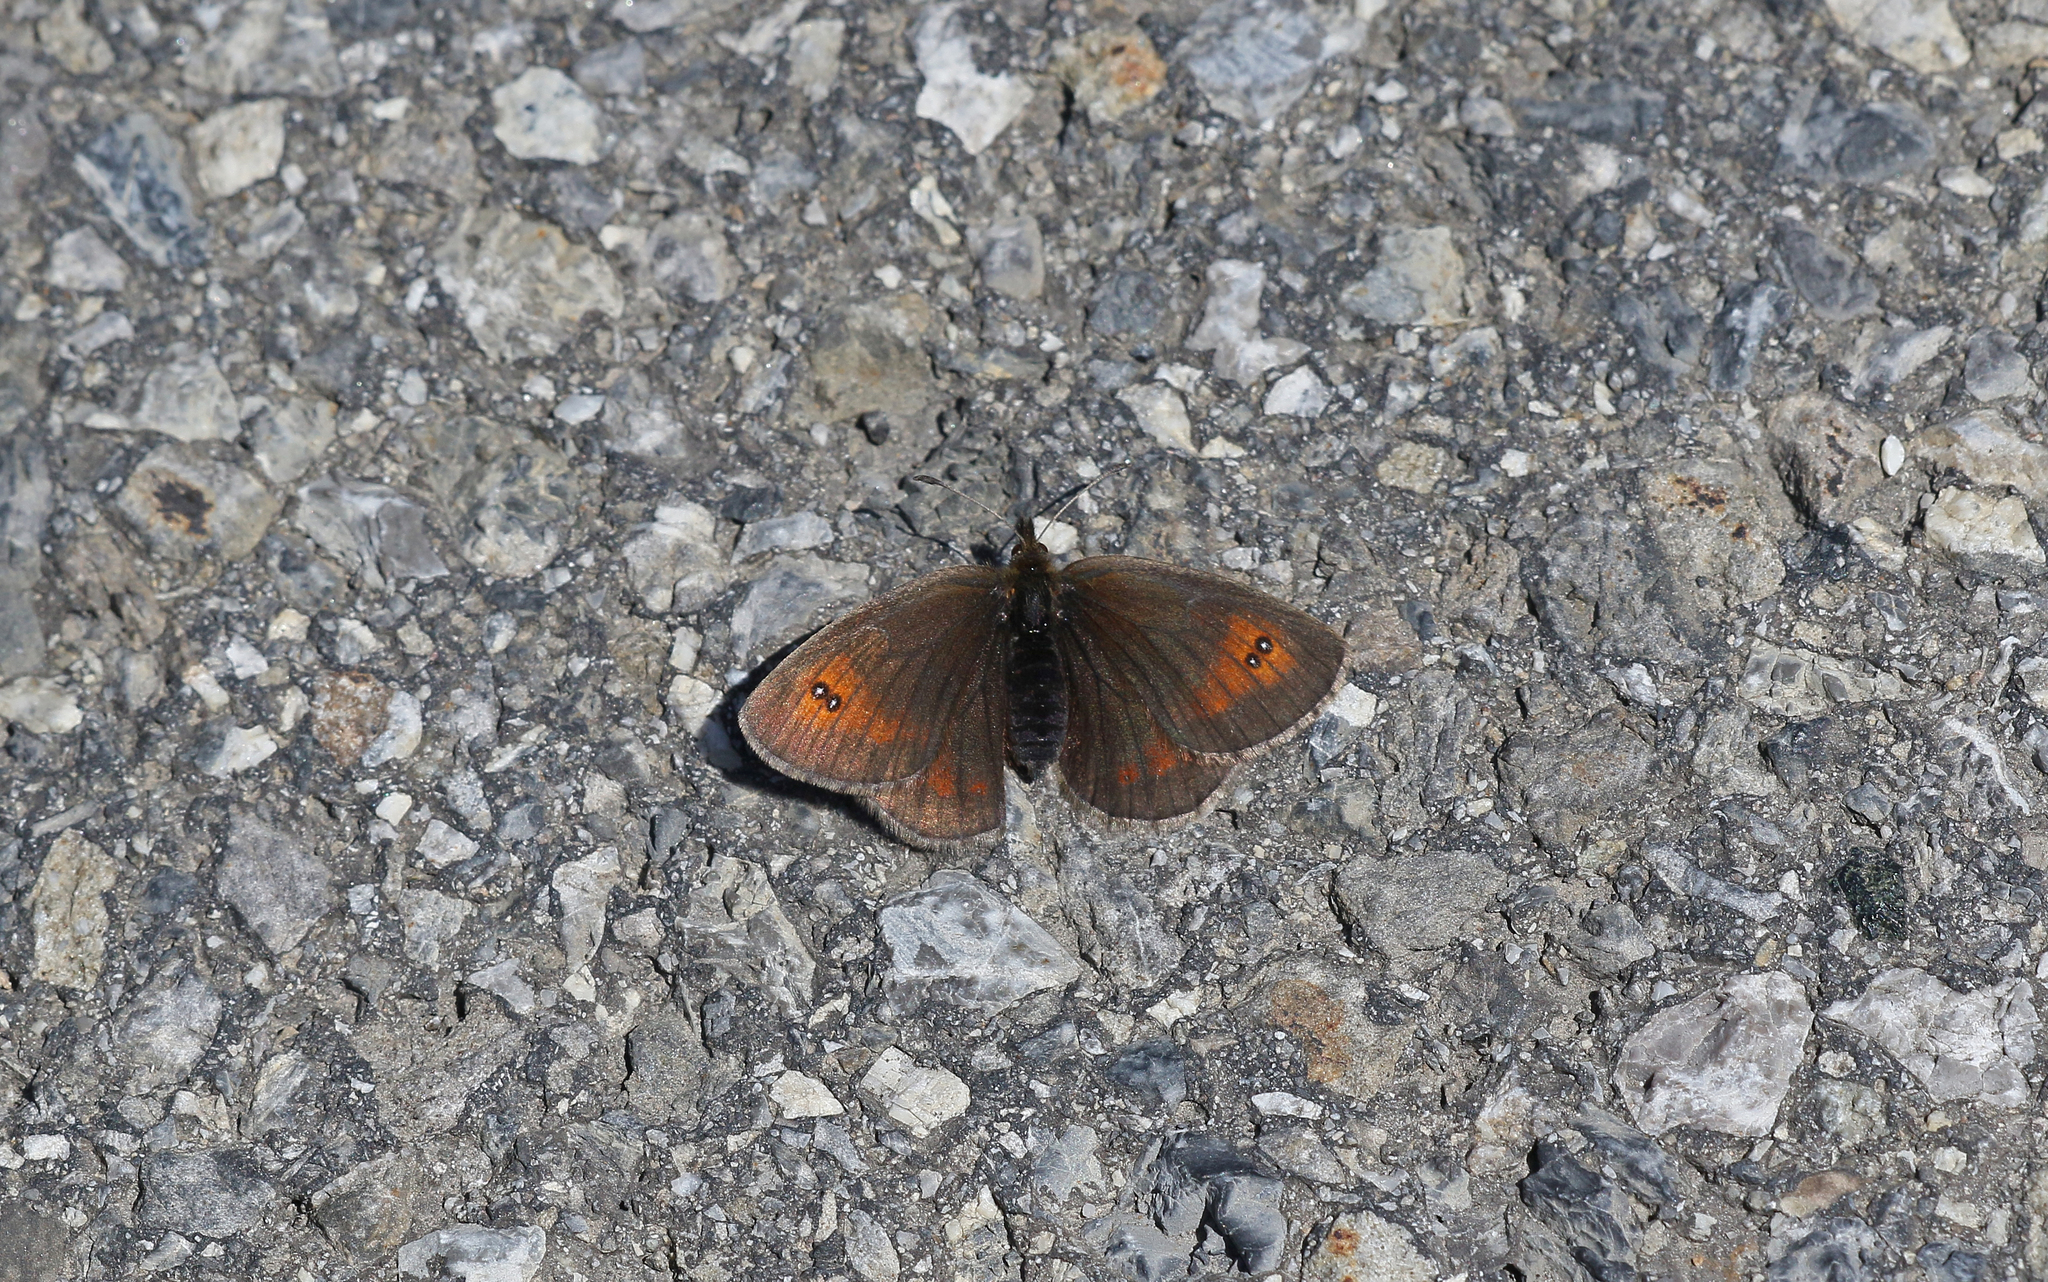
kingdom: Animalia
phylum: Arthropoda
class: Insecta
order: Lepidoptera
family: Nymphalidae
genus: Erebia
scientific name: Erebia cassioides
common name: Common brassy ringlet
